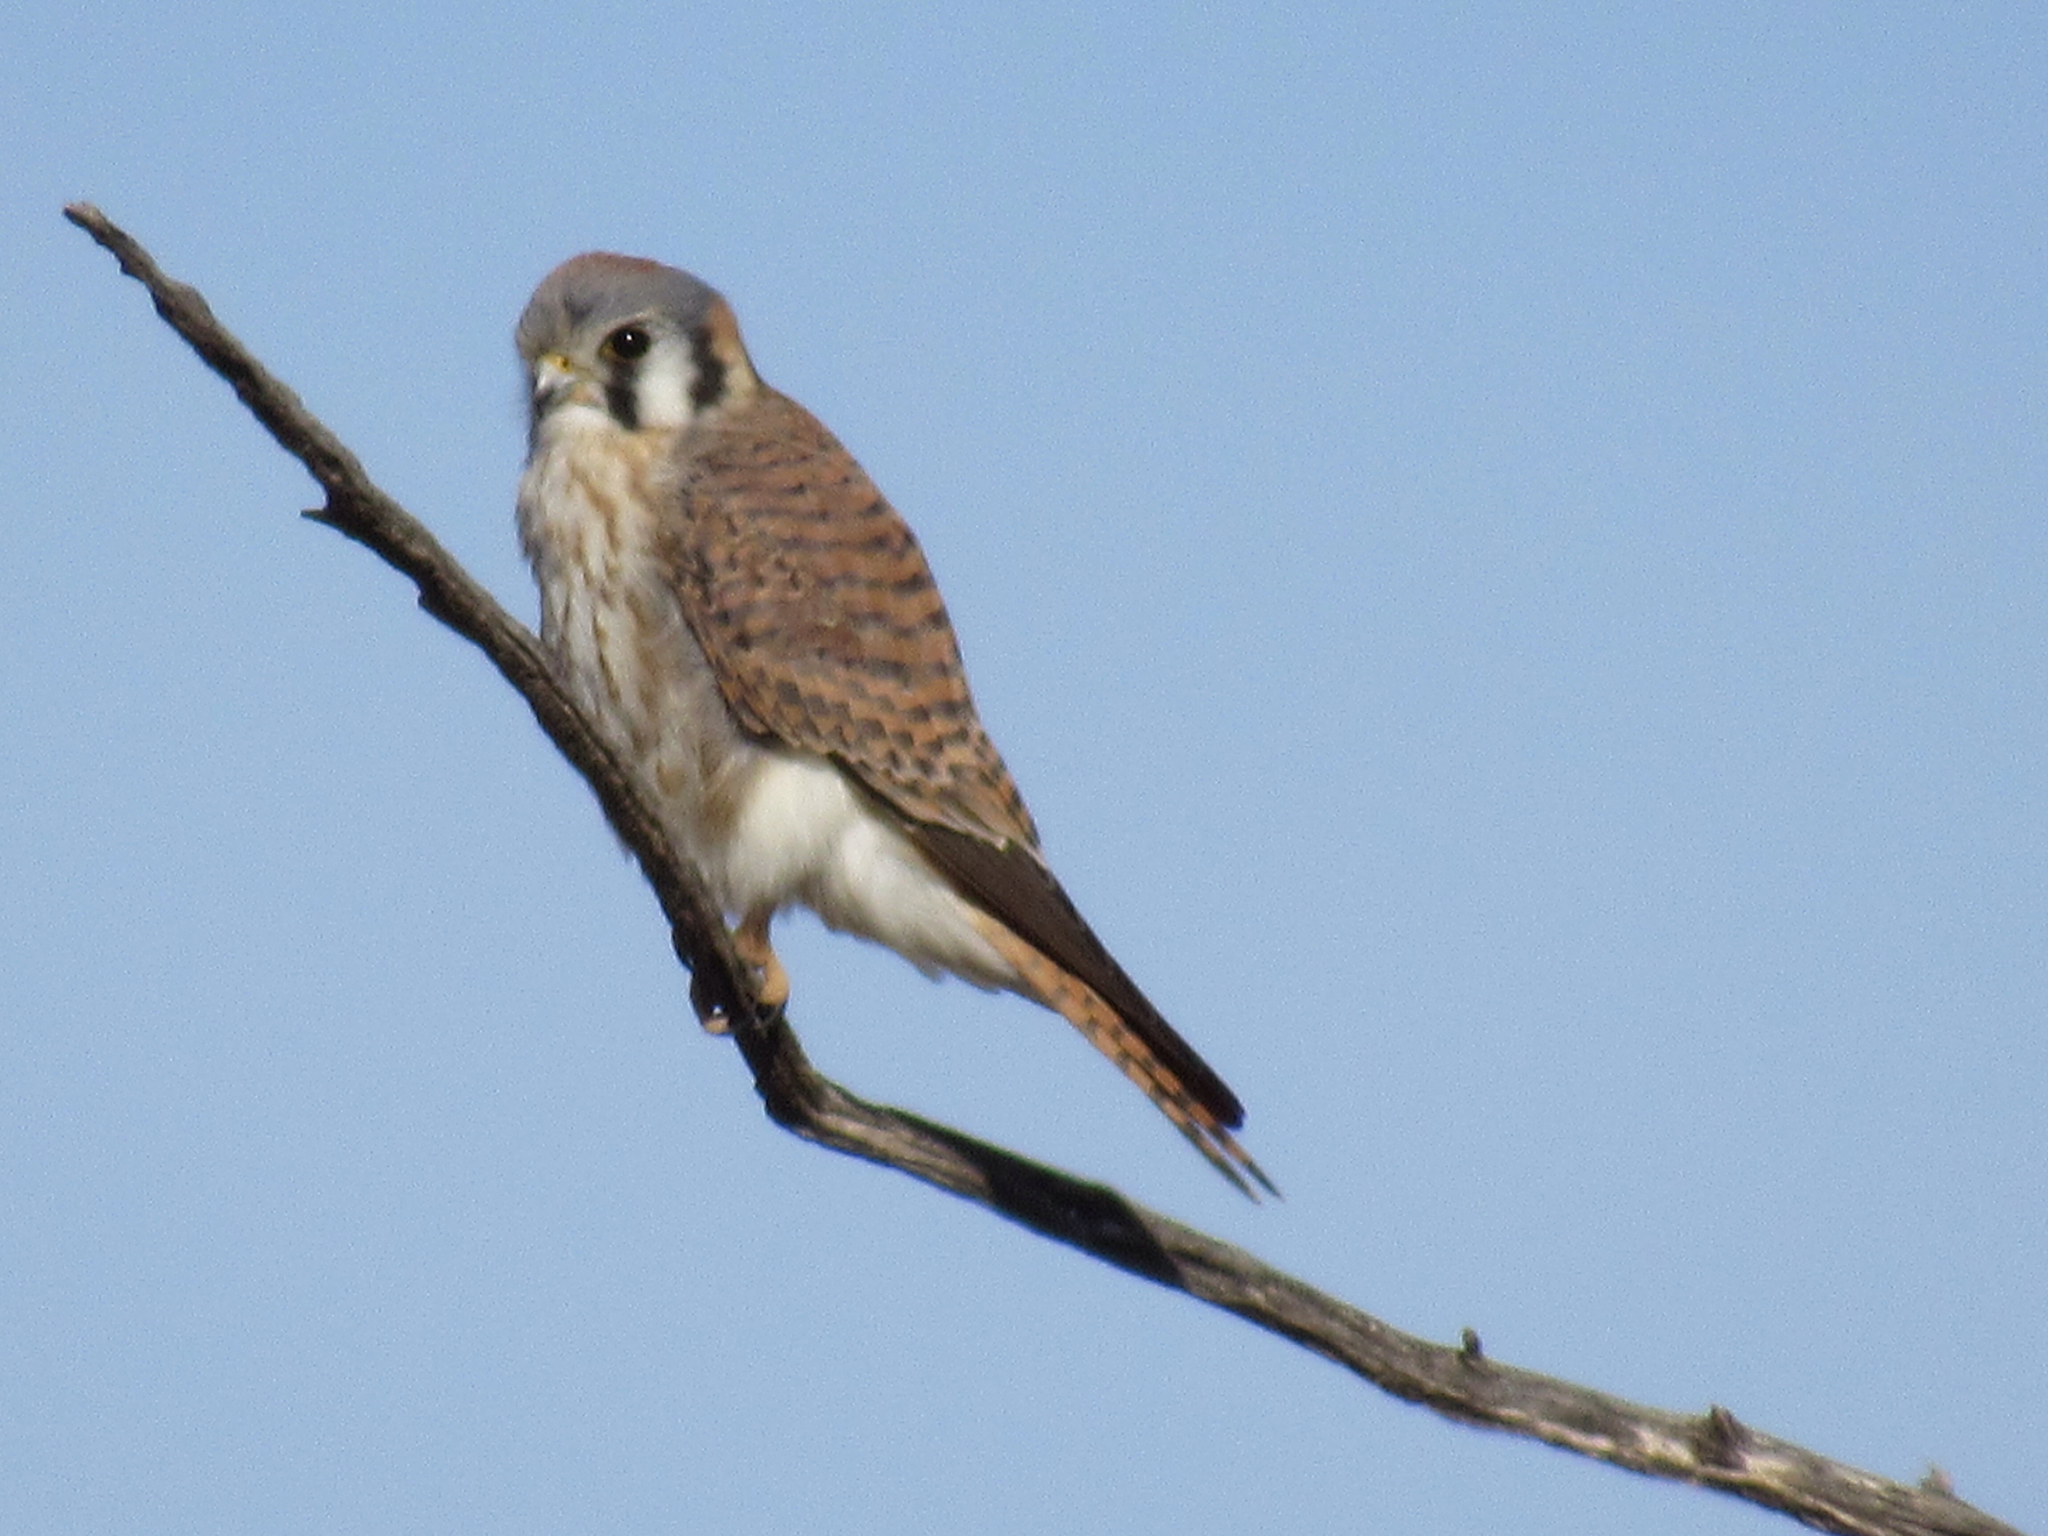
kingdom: Animalia
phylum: Chordata
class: Aves
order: Falconiformes
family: Falconidae
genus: Falco
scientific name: Falco sparverius
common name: American kestrel
